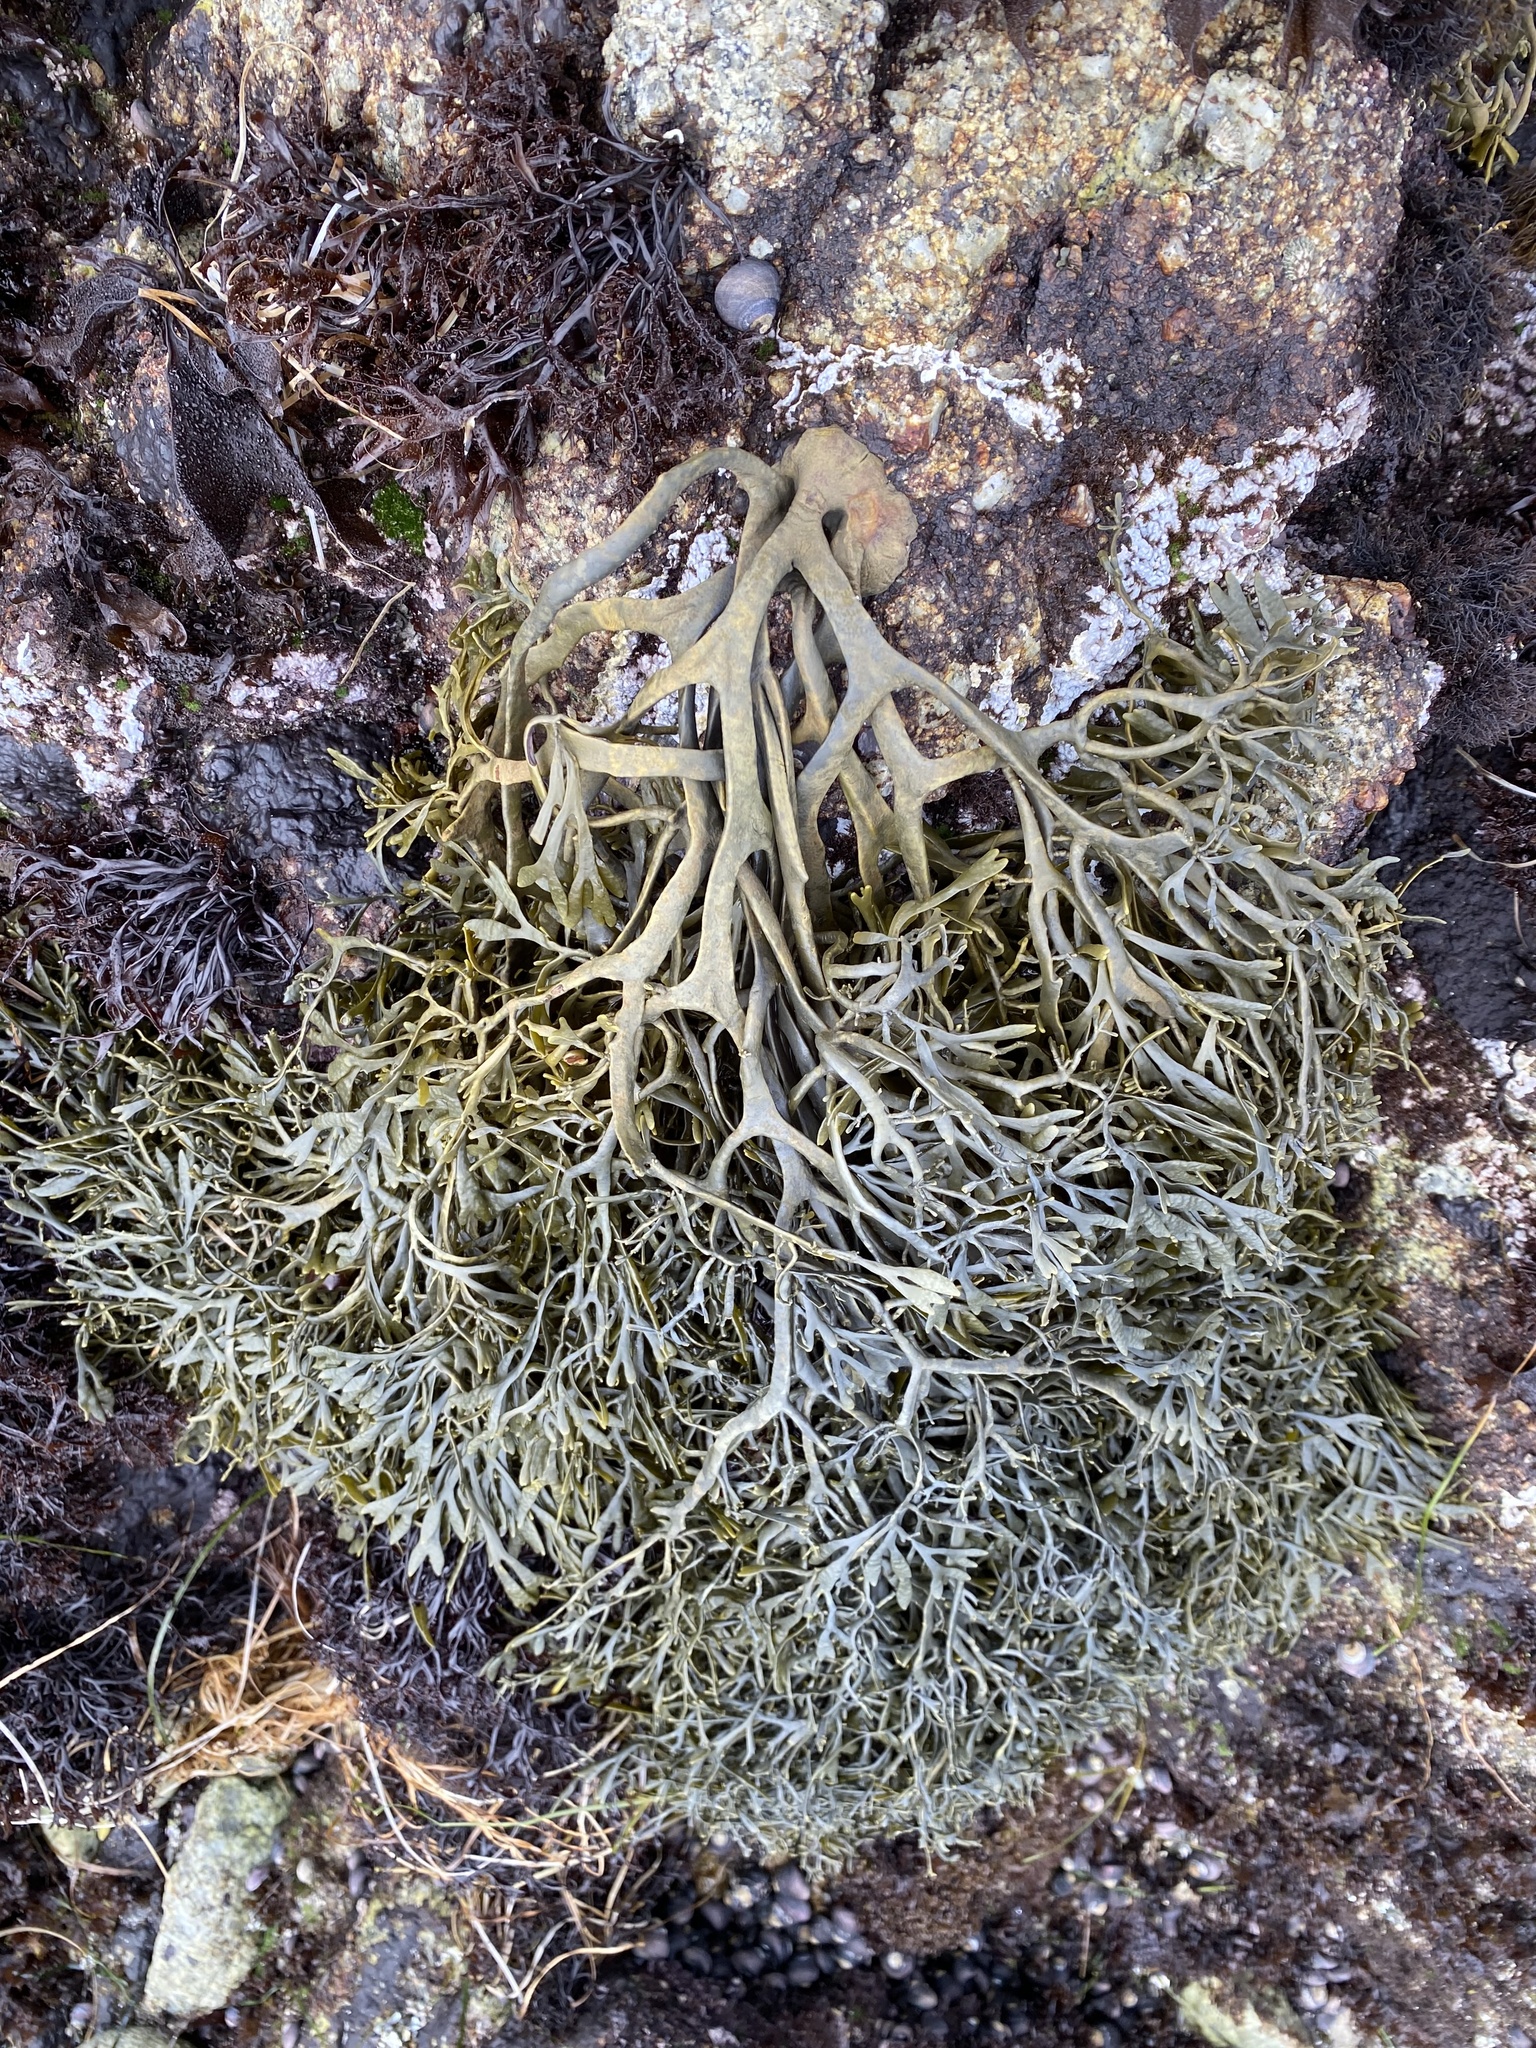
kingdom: Chromista
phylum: Ochrophyta
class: Phaeophyceae
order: Fucales
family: Fucaceae
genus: Silvetia
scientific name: Silvetia
